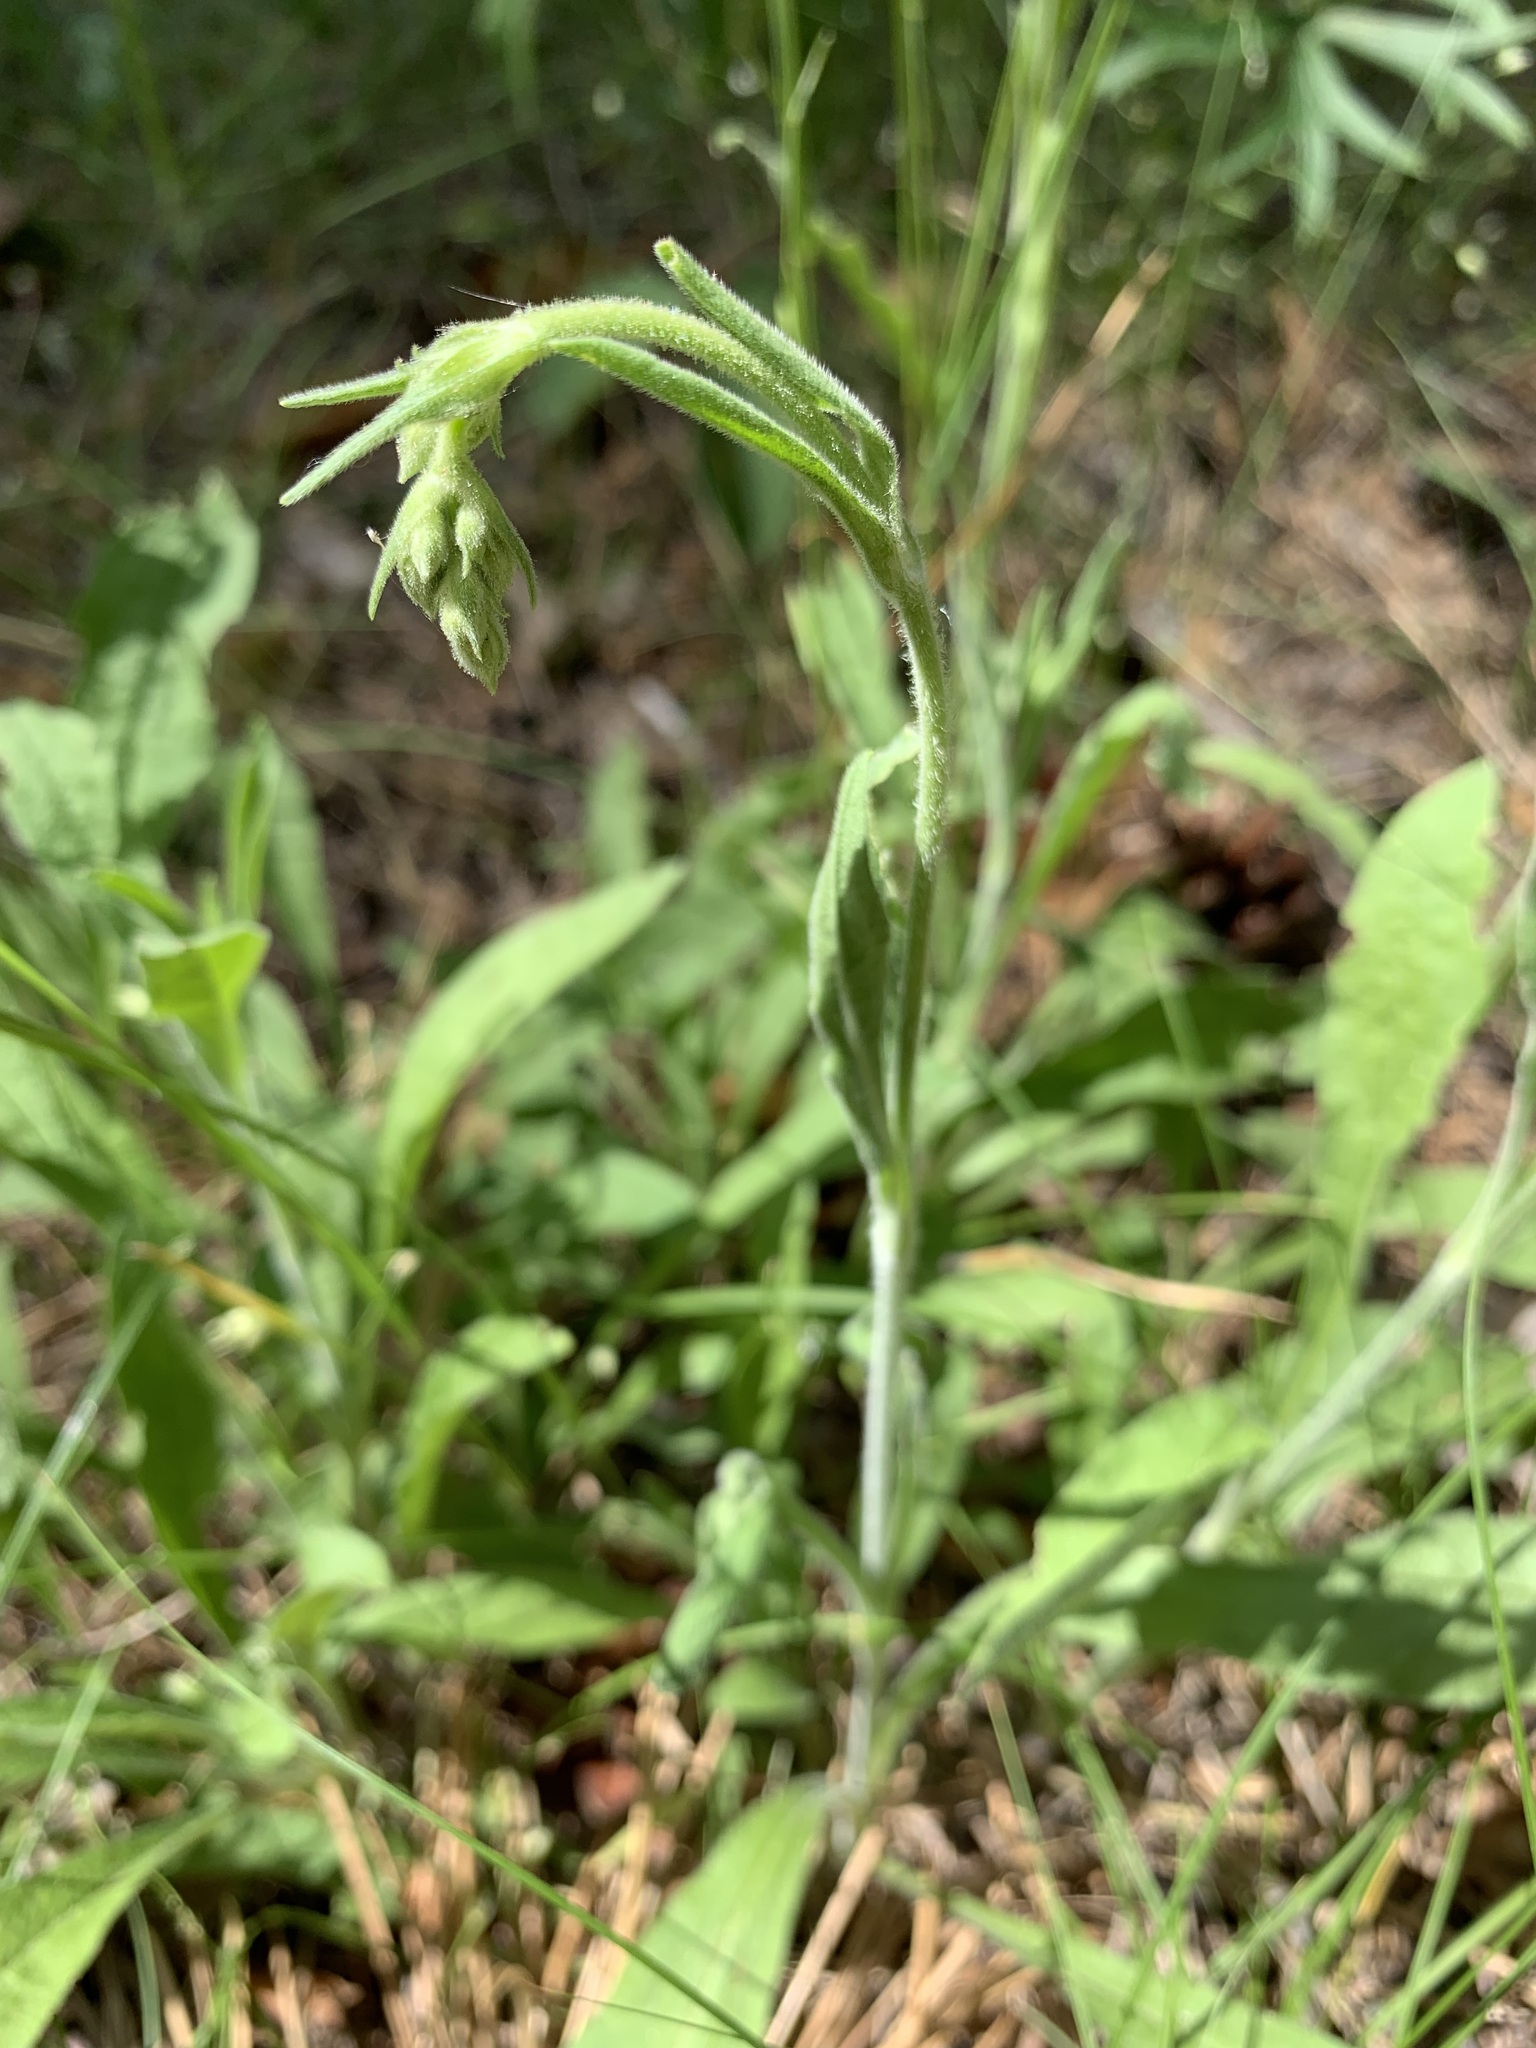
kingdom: Plantae
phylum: Tracheophyta
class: Magnoliopsida
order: Caryophyllales
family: Caryophyllaceae
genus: Silene
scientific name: Silene nutans
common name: Nottingham catchfly
